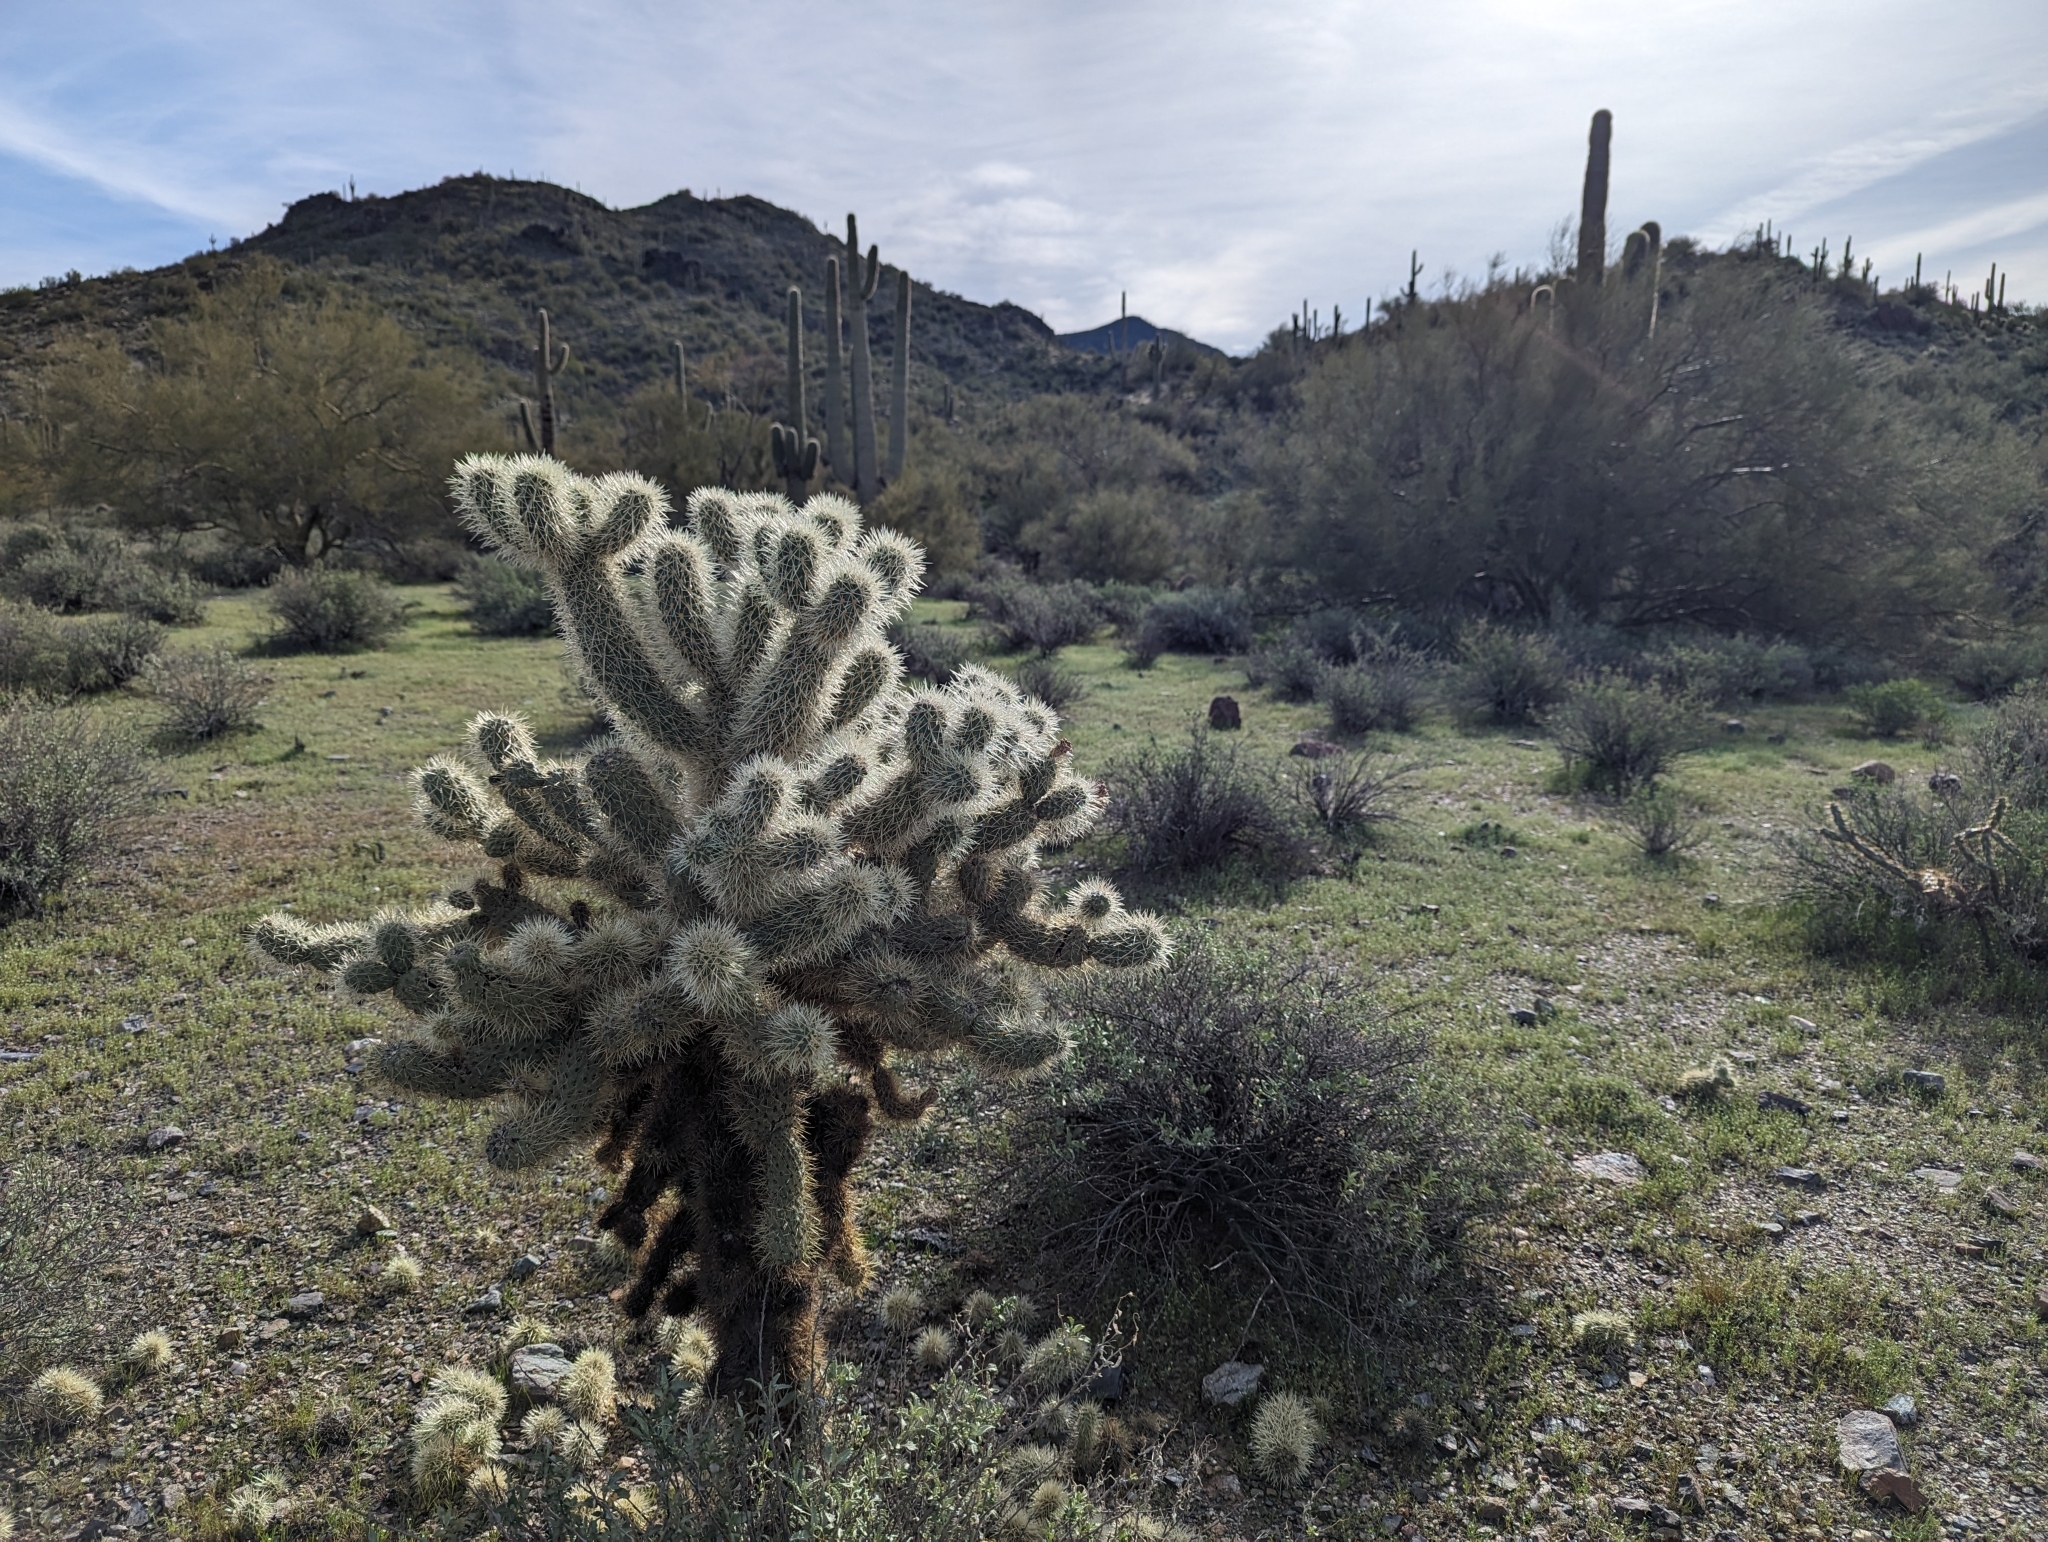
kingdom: Plantae
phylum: Tracheophyta
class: Magnoliopsida
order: Caryophyllales
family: Cactaceae
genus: Cylindropuntia
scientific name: Cylindropuntia fosbergii
